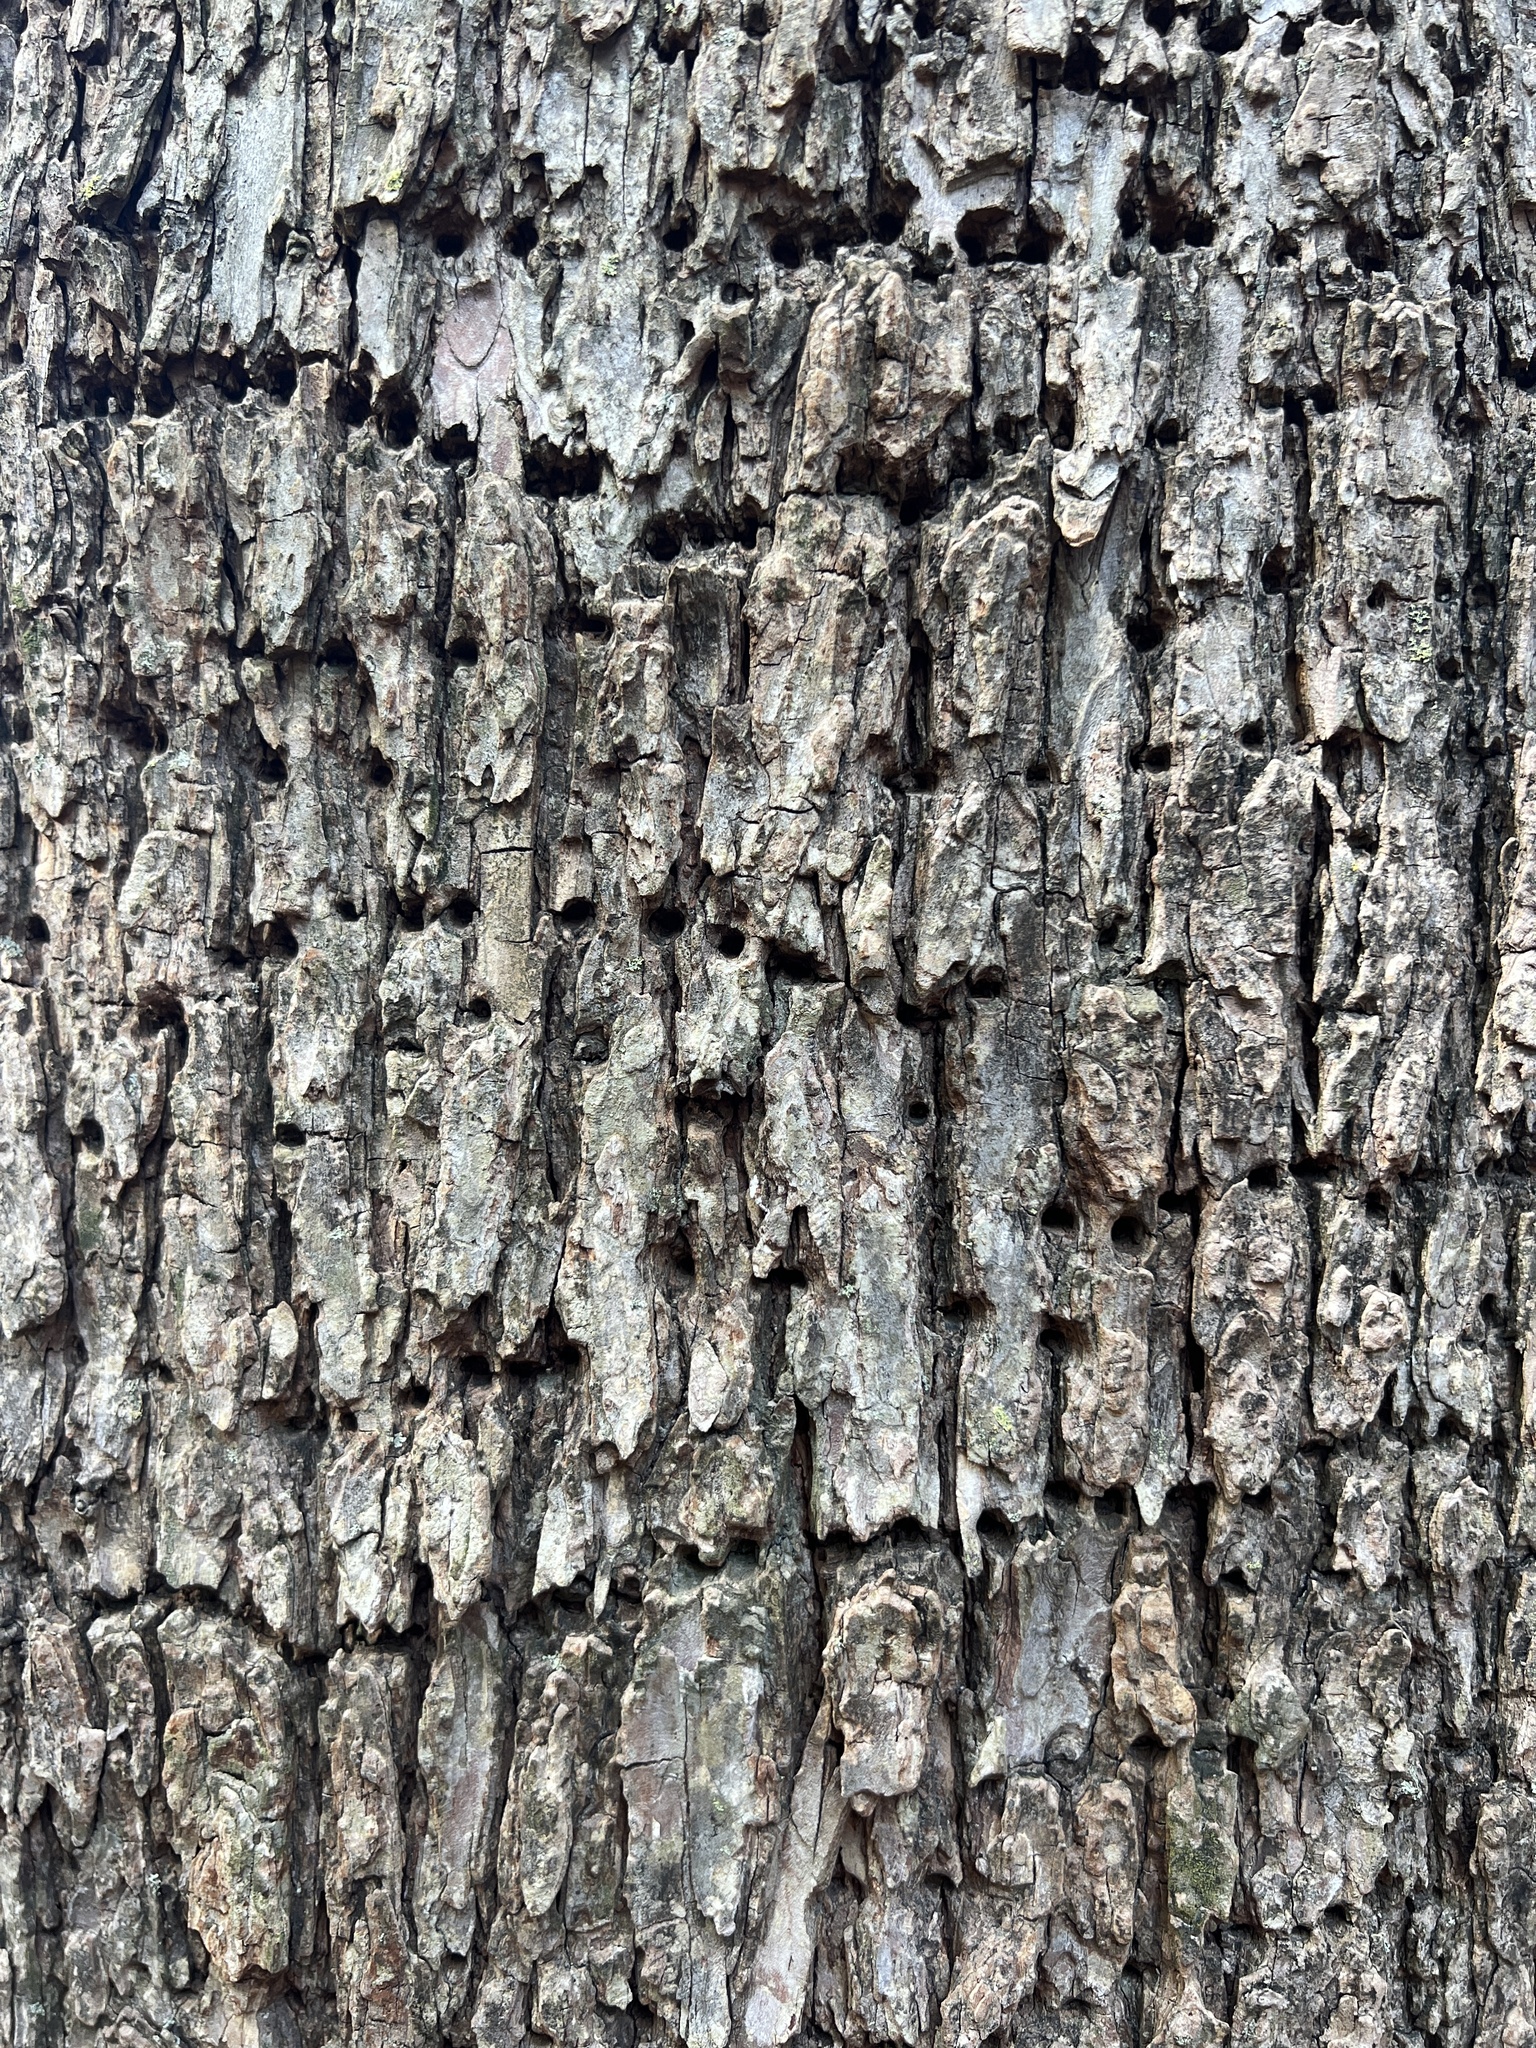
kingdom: Animalia
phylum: Chordata
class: Aves
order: Piciformes
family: Picidae
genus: Sphyrapicus
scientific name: Sphyrapicus varius
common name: Yellow-bellied sapsucker
